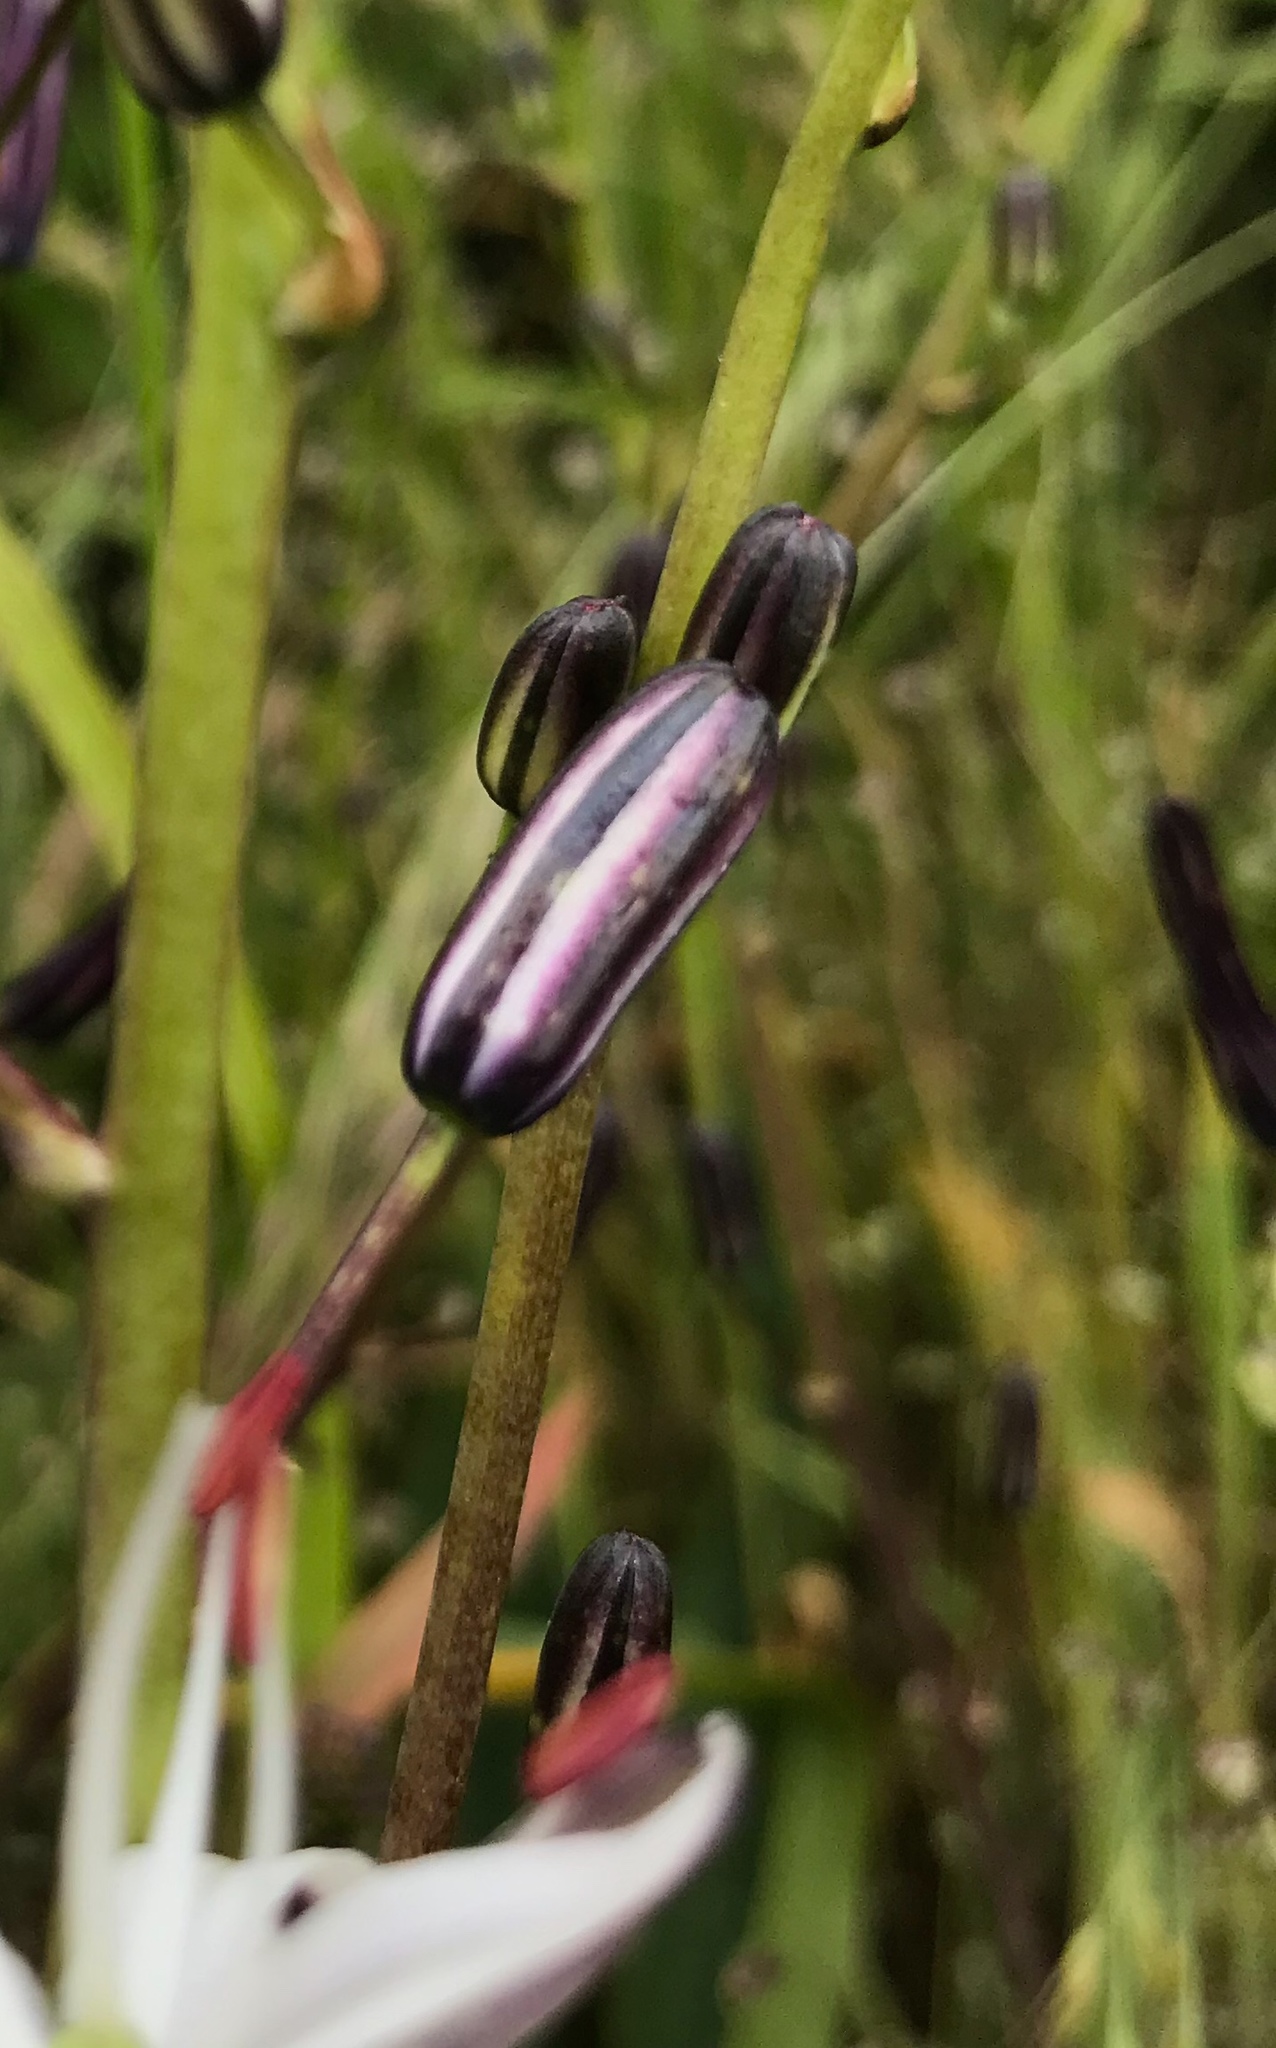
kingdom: Plantae
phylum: Tracheophyta
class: Liliopsida
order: Asparagales
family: Asparagaceae
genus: Chlorogalum
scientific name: Chlorogalum pomeridianum
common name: Amole
